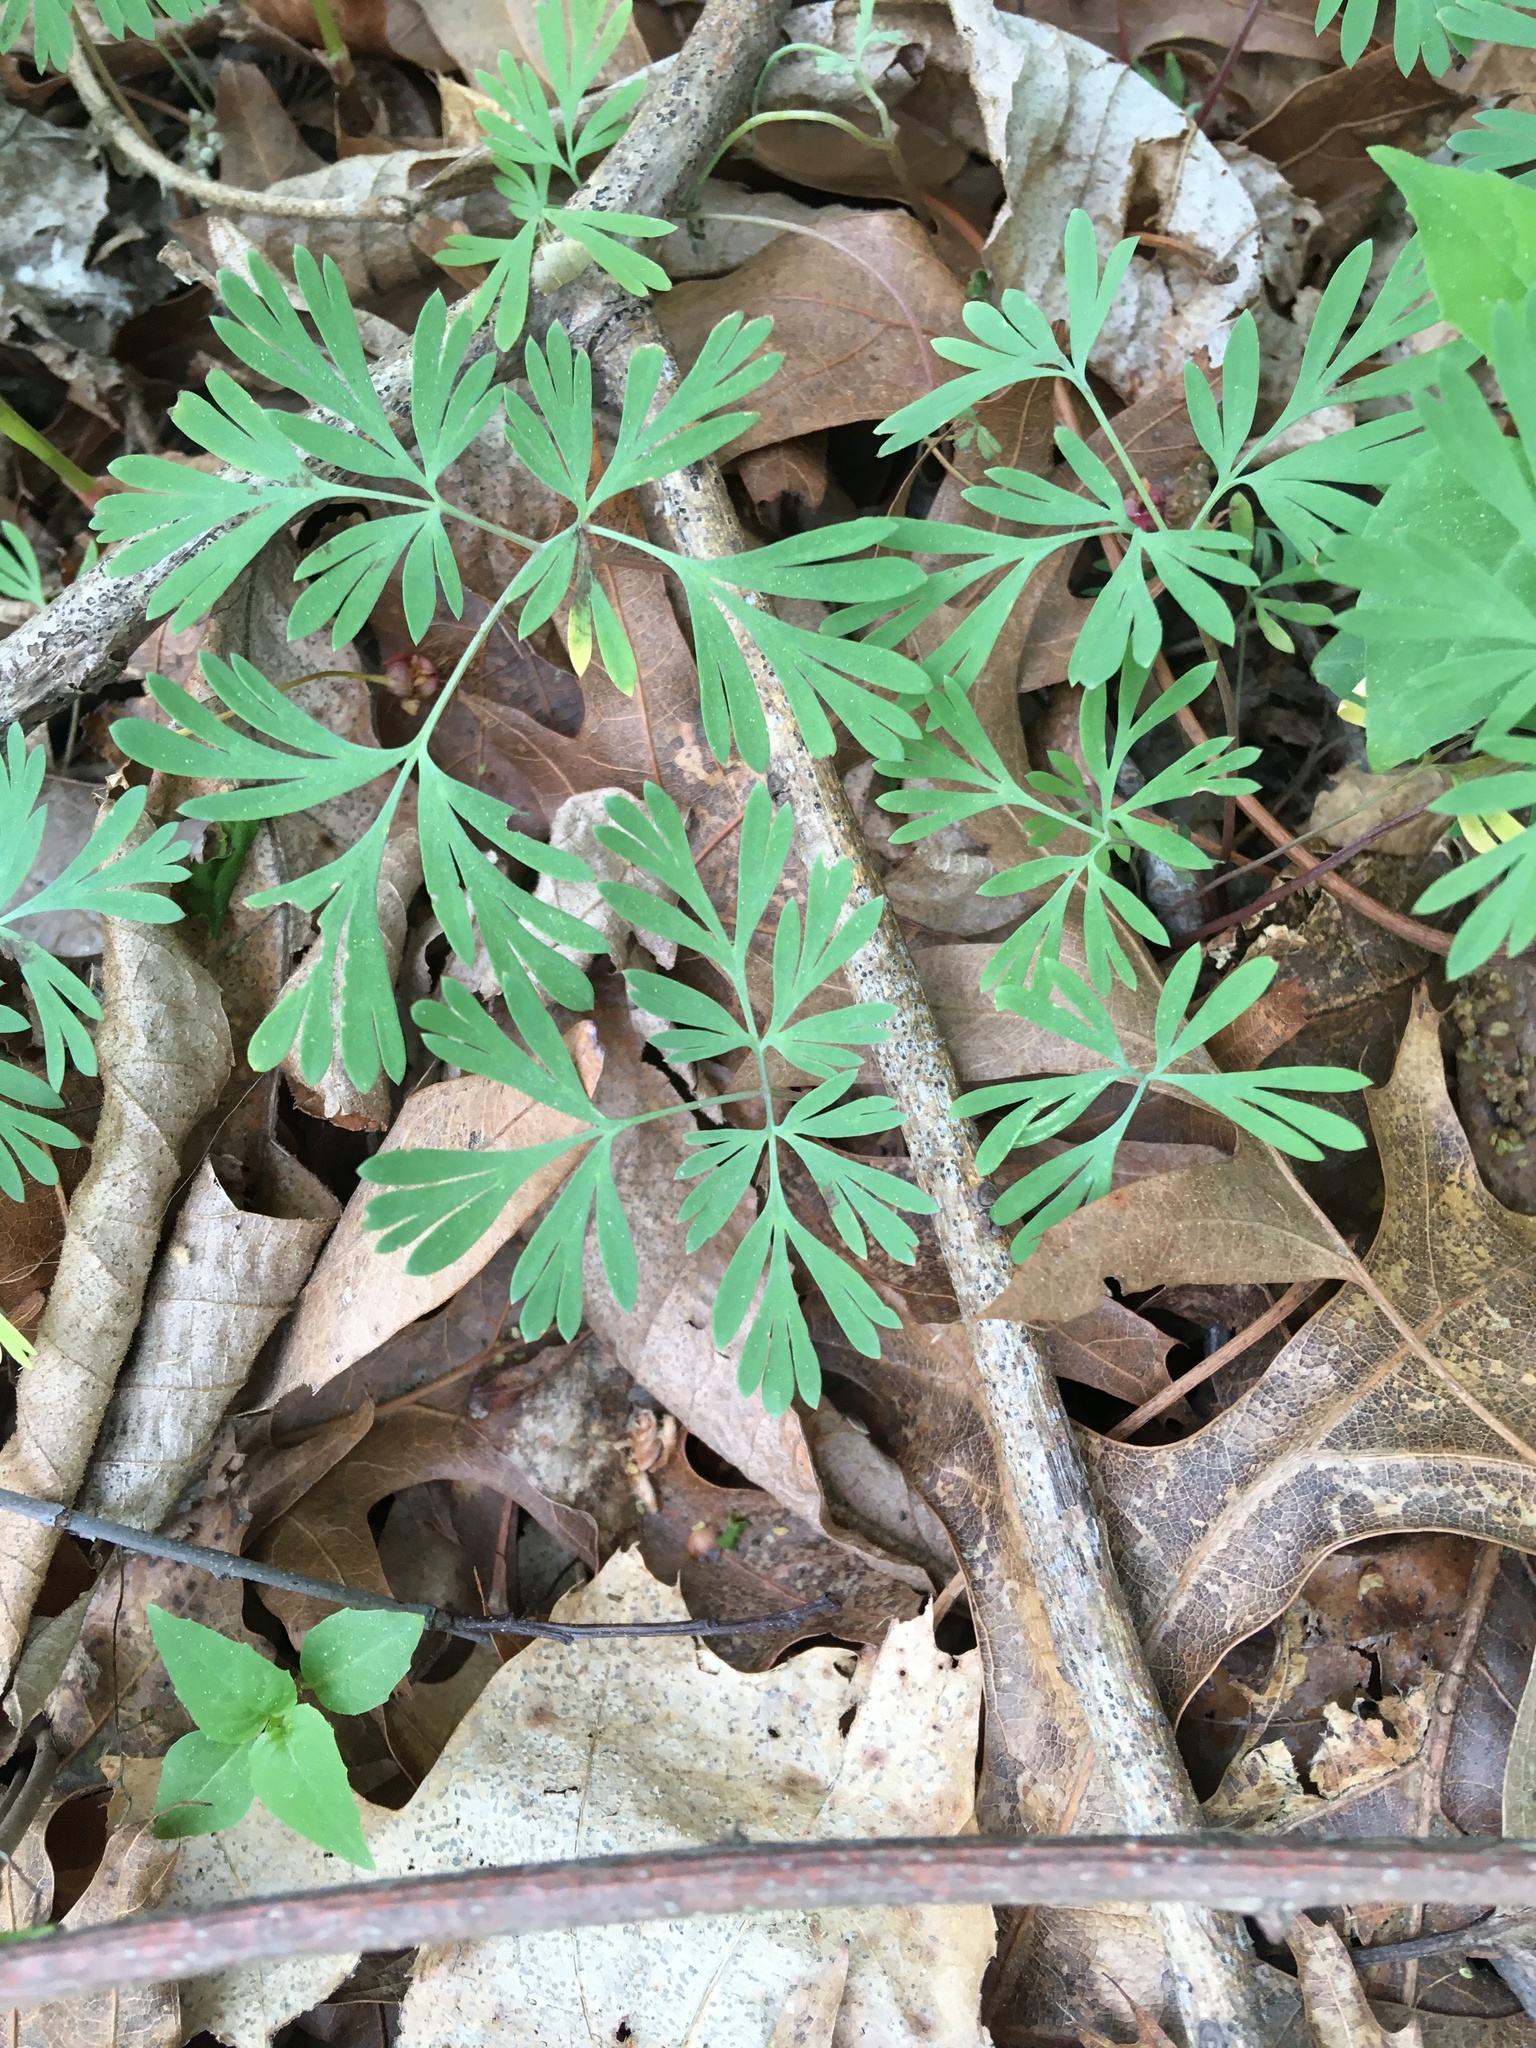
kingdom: Plantae
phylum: Tracheophyta
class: Magnoliopsida
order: Ranunculales
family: Papaveraceae
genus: Dicentra
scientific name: Dicentra cucullaria
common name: Dutchman's breeches
